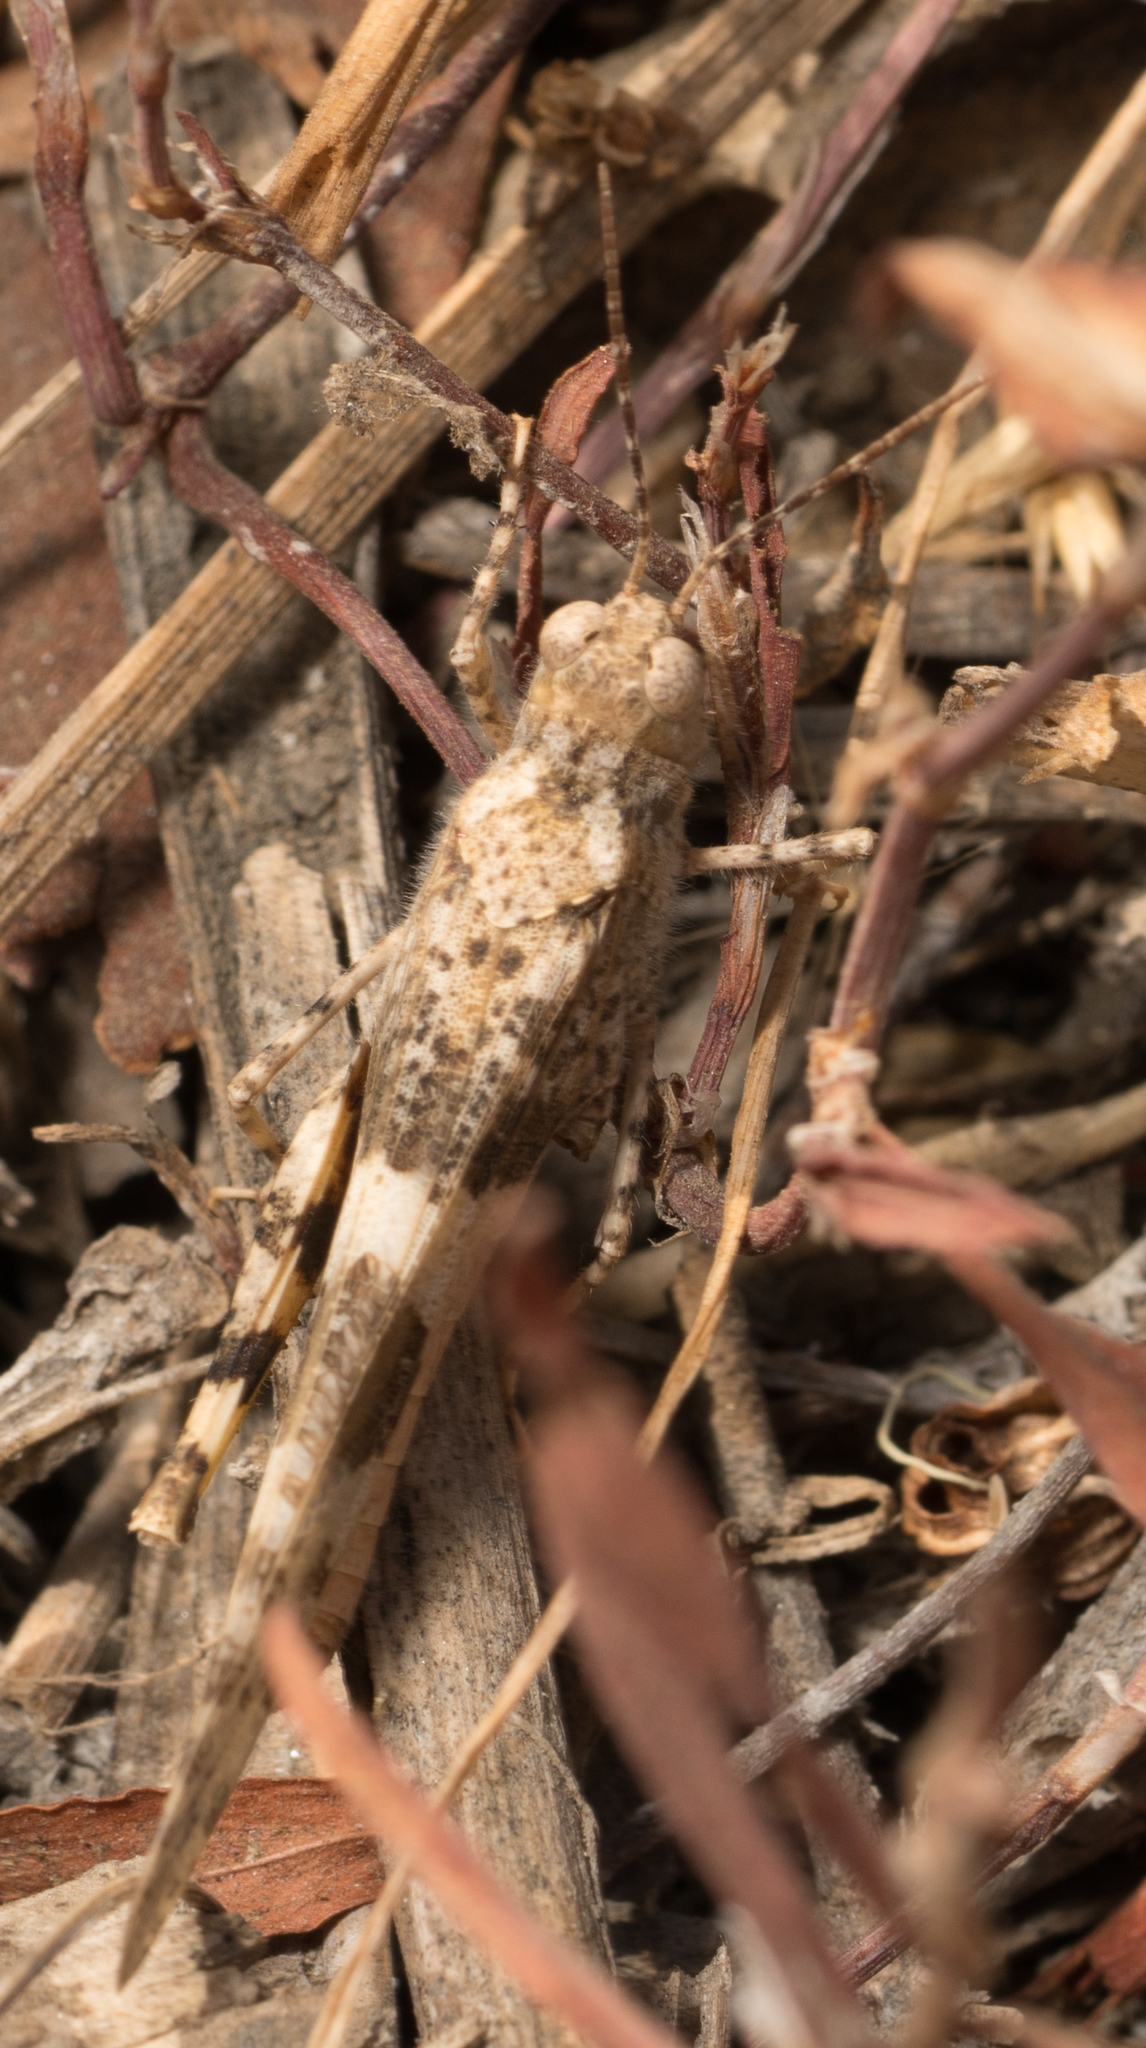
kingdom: Animalia
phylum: Arthropoda
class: Insecta
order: Orthoptera
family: Acrididae
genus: Trimerotropis
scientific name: Trimerotropis pallidipennis
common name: Pallid-winged grasshopper
